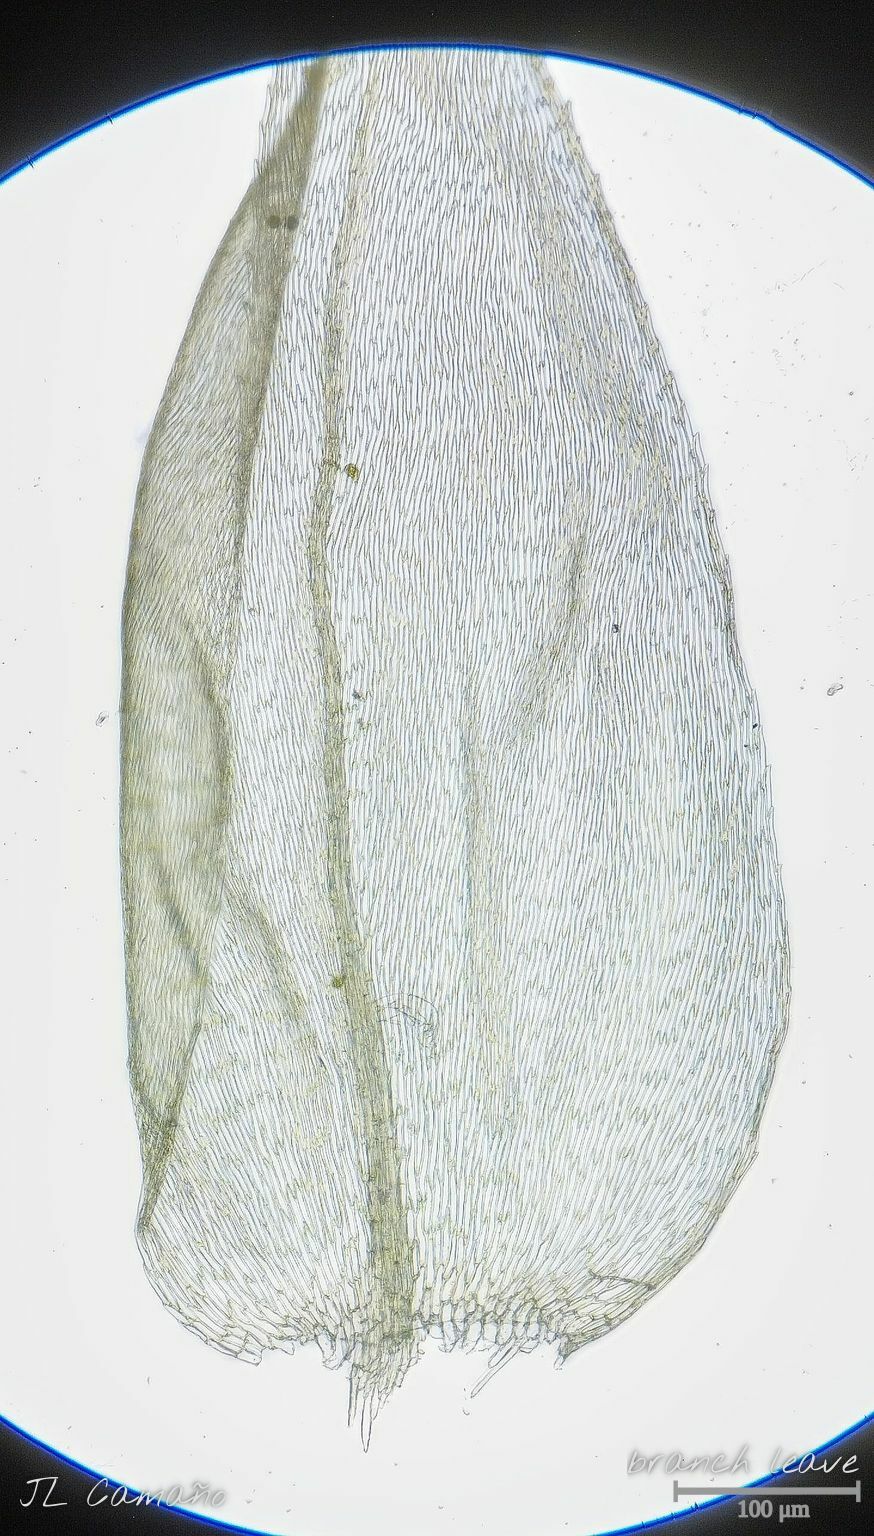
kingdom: Plantae
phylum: Bryophyta
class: Bryopsida
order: Hypnales
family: Brachytheciaceae
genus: Brachythecium
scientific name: Brachythecium rutabulum
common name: Rough-stalked feather-moss
